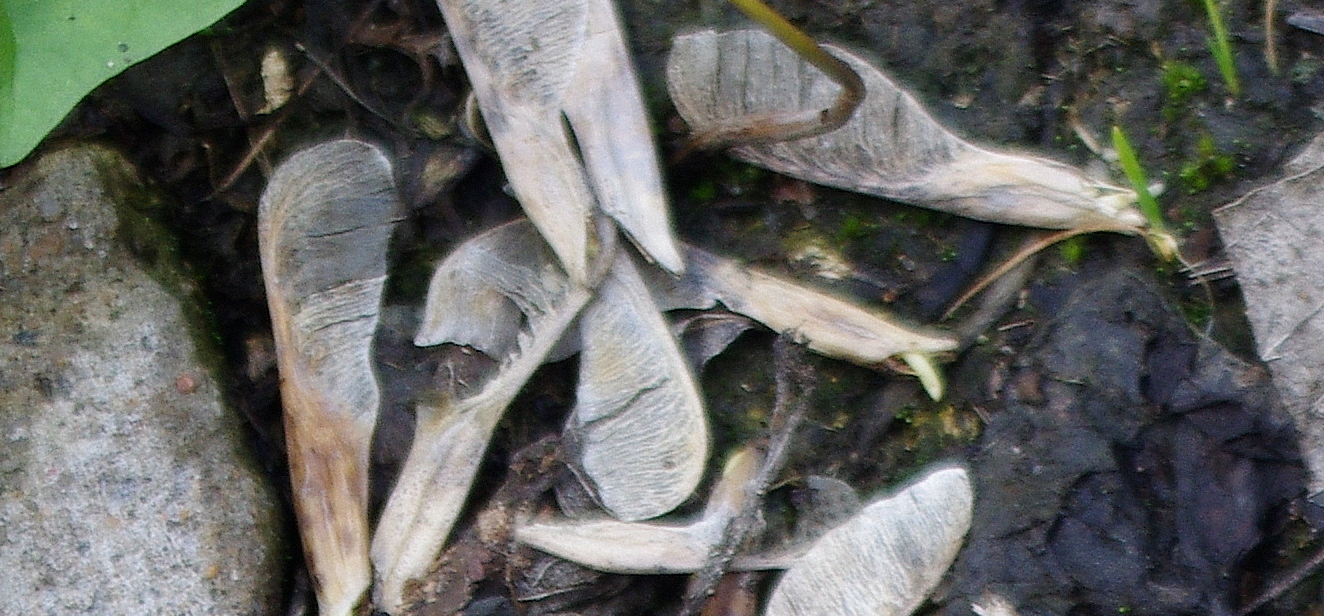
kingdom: Plantae
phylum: Tracheophyta
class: Magnoliopsida
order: Sapindales
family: Sapindaceae
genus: Acer
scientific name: Acer negundo
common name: Ashleaf maple
